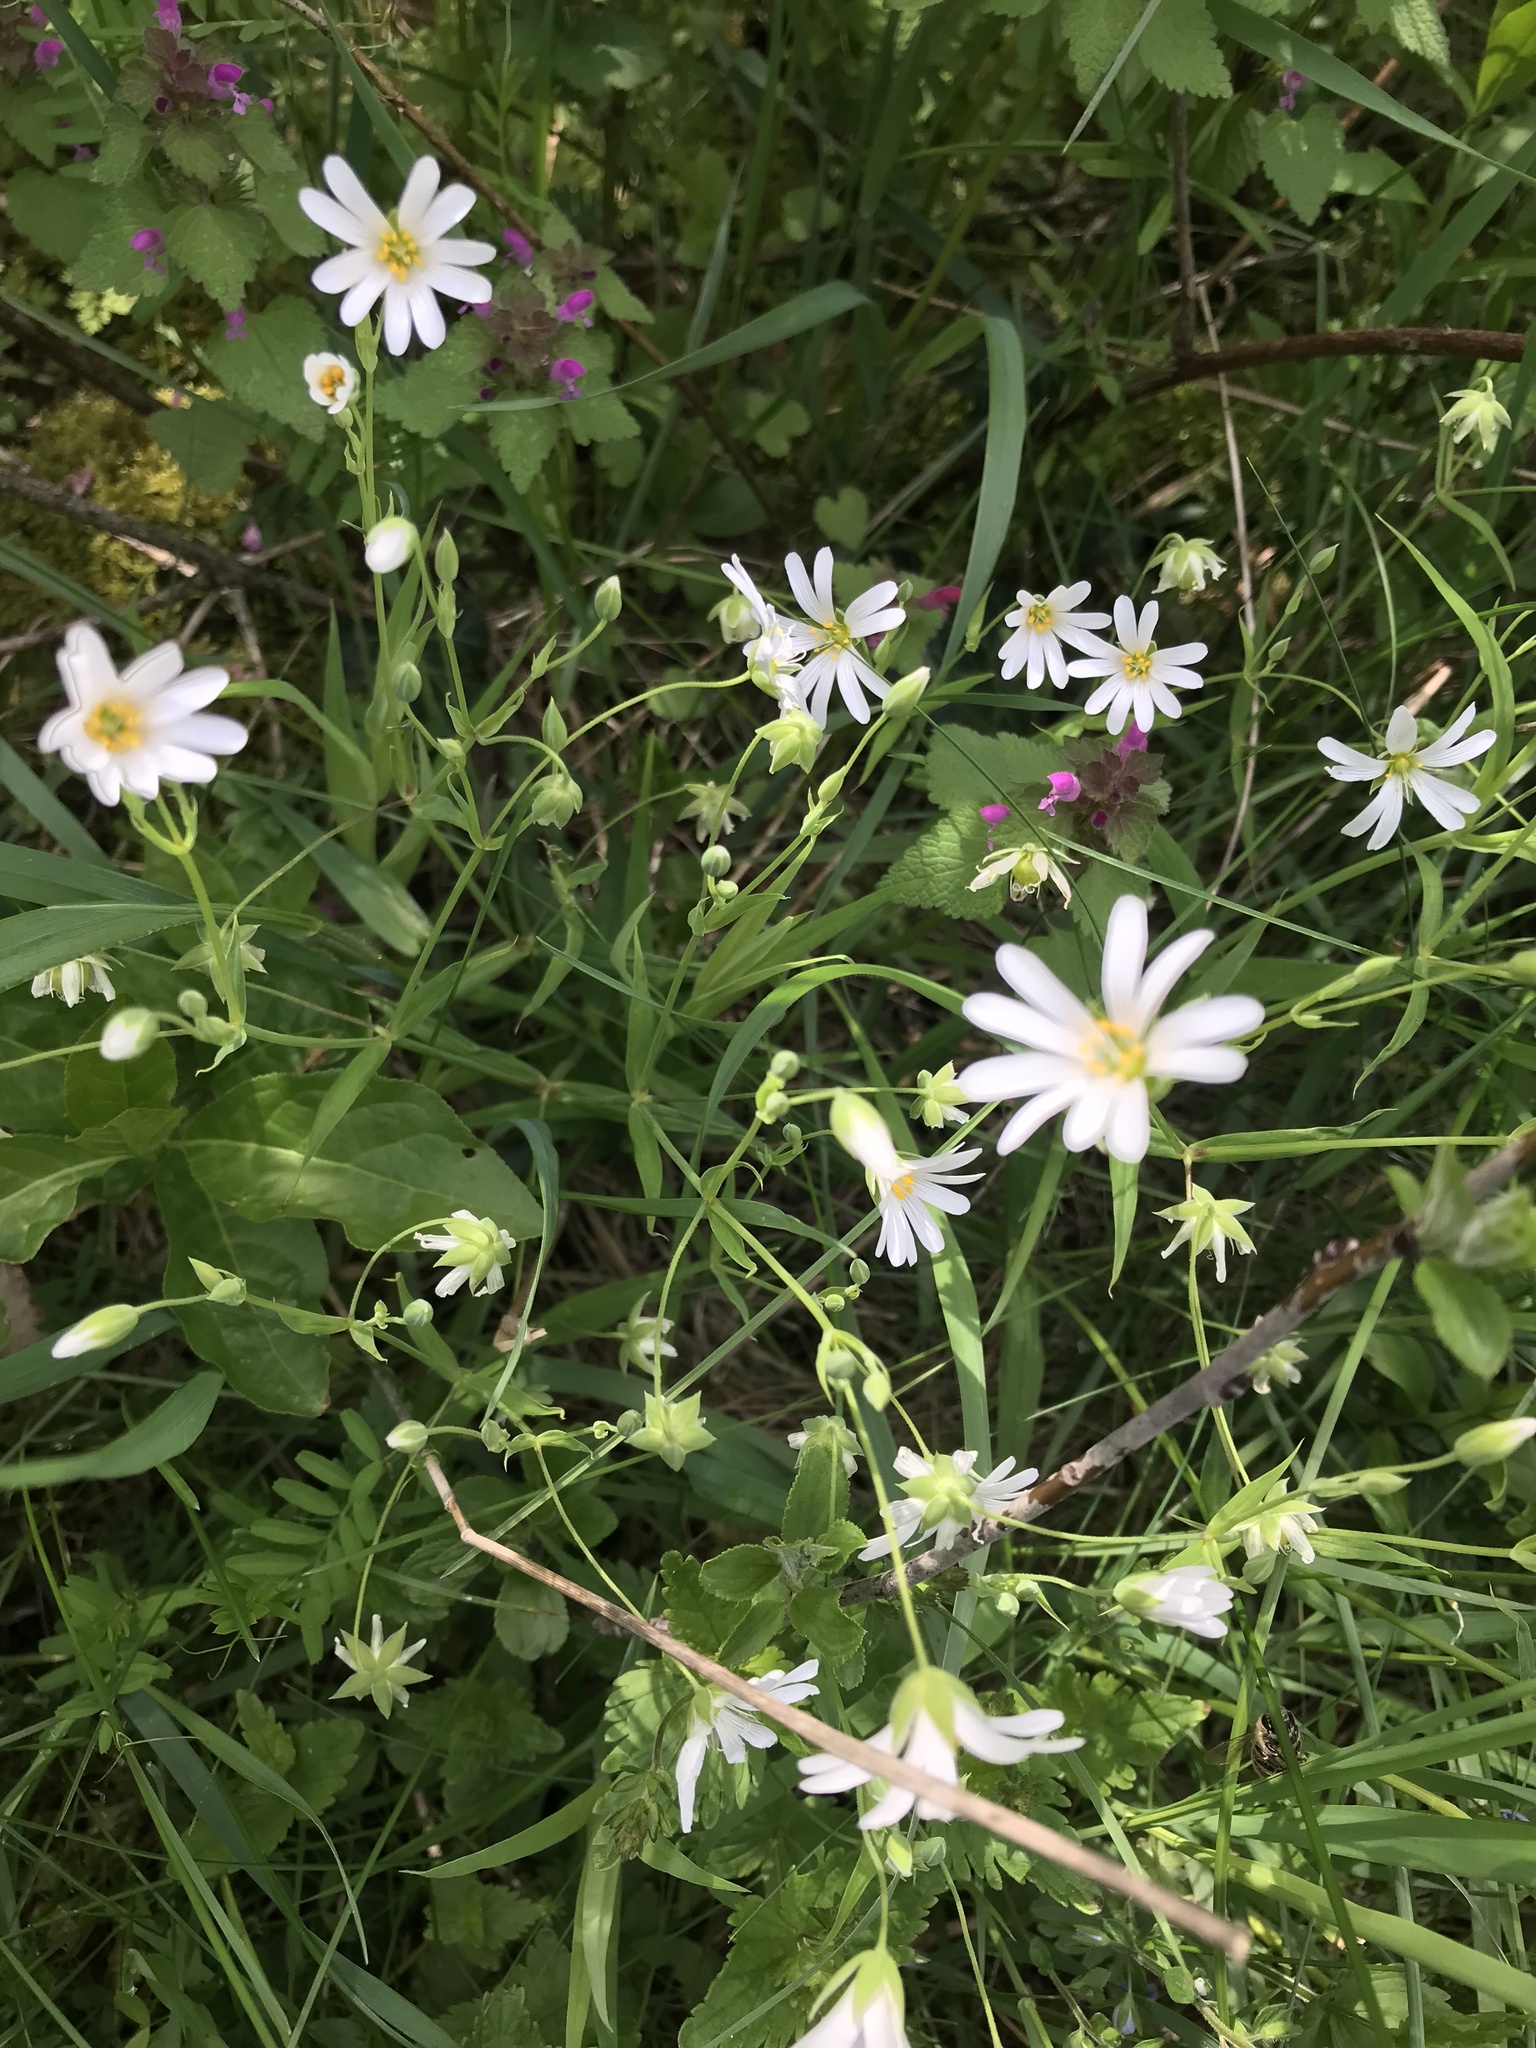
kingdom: Plantae
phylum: Tracheophyta
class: Magnoliopsida
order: Caryophyllales
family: Caryophyllaceae
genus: Rabelera
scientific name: Rabelera holostea
